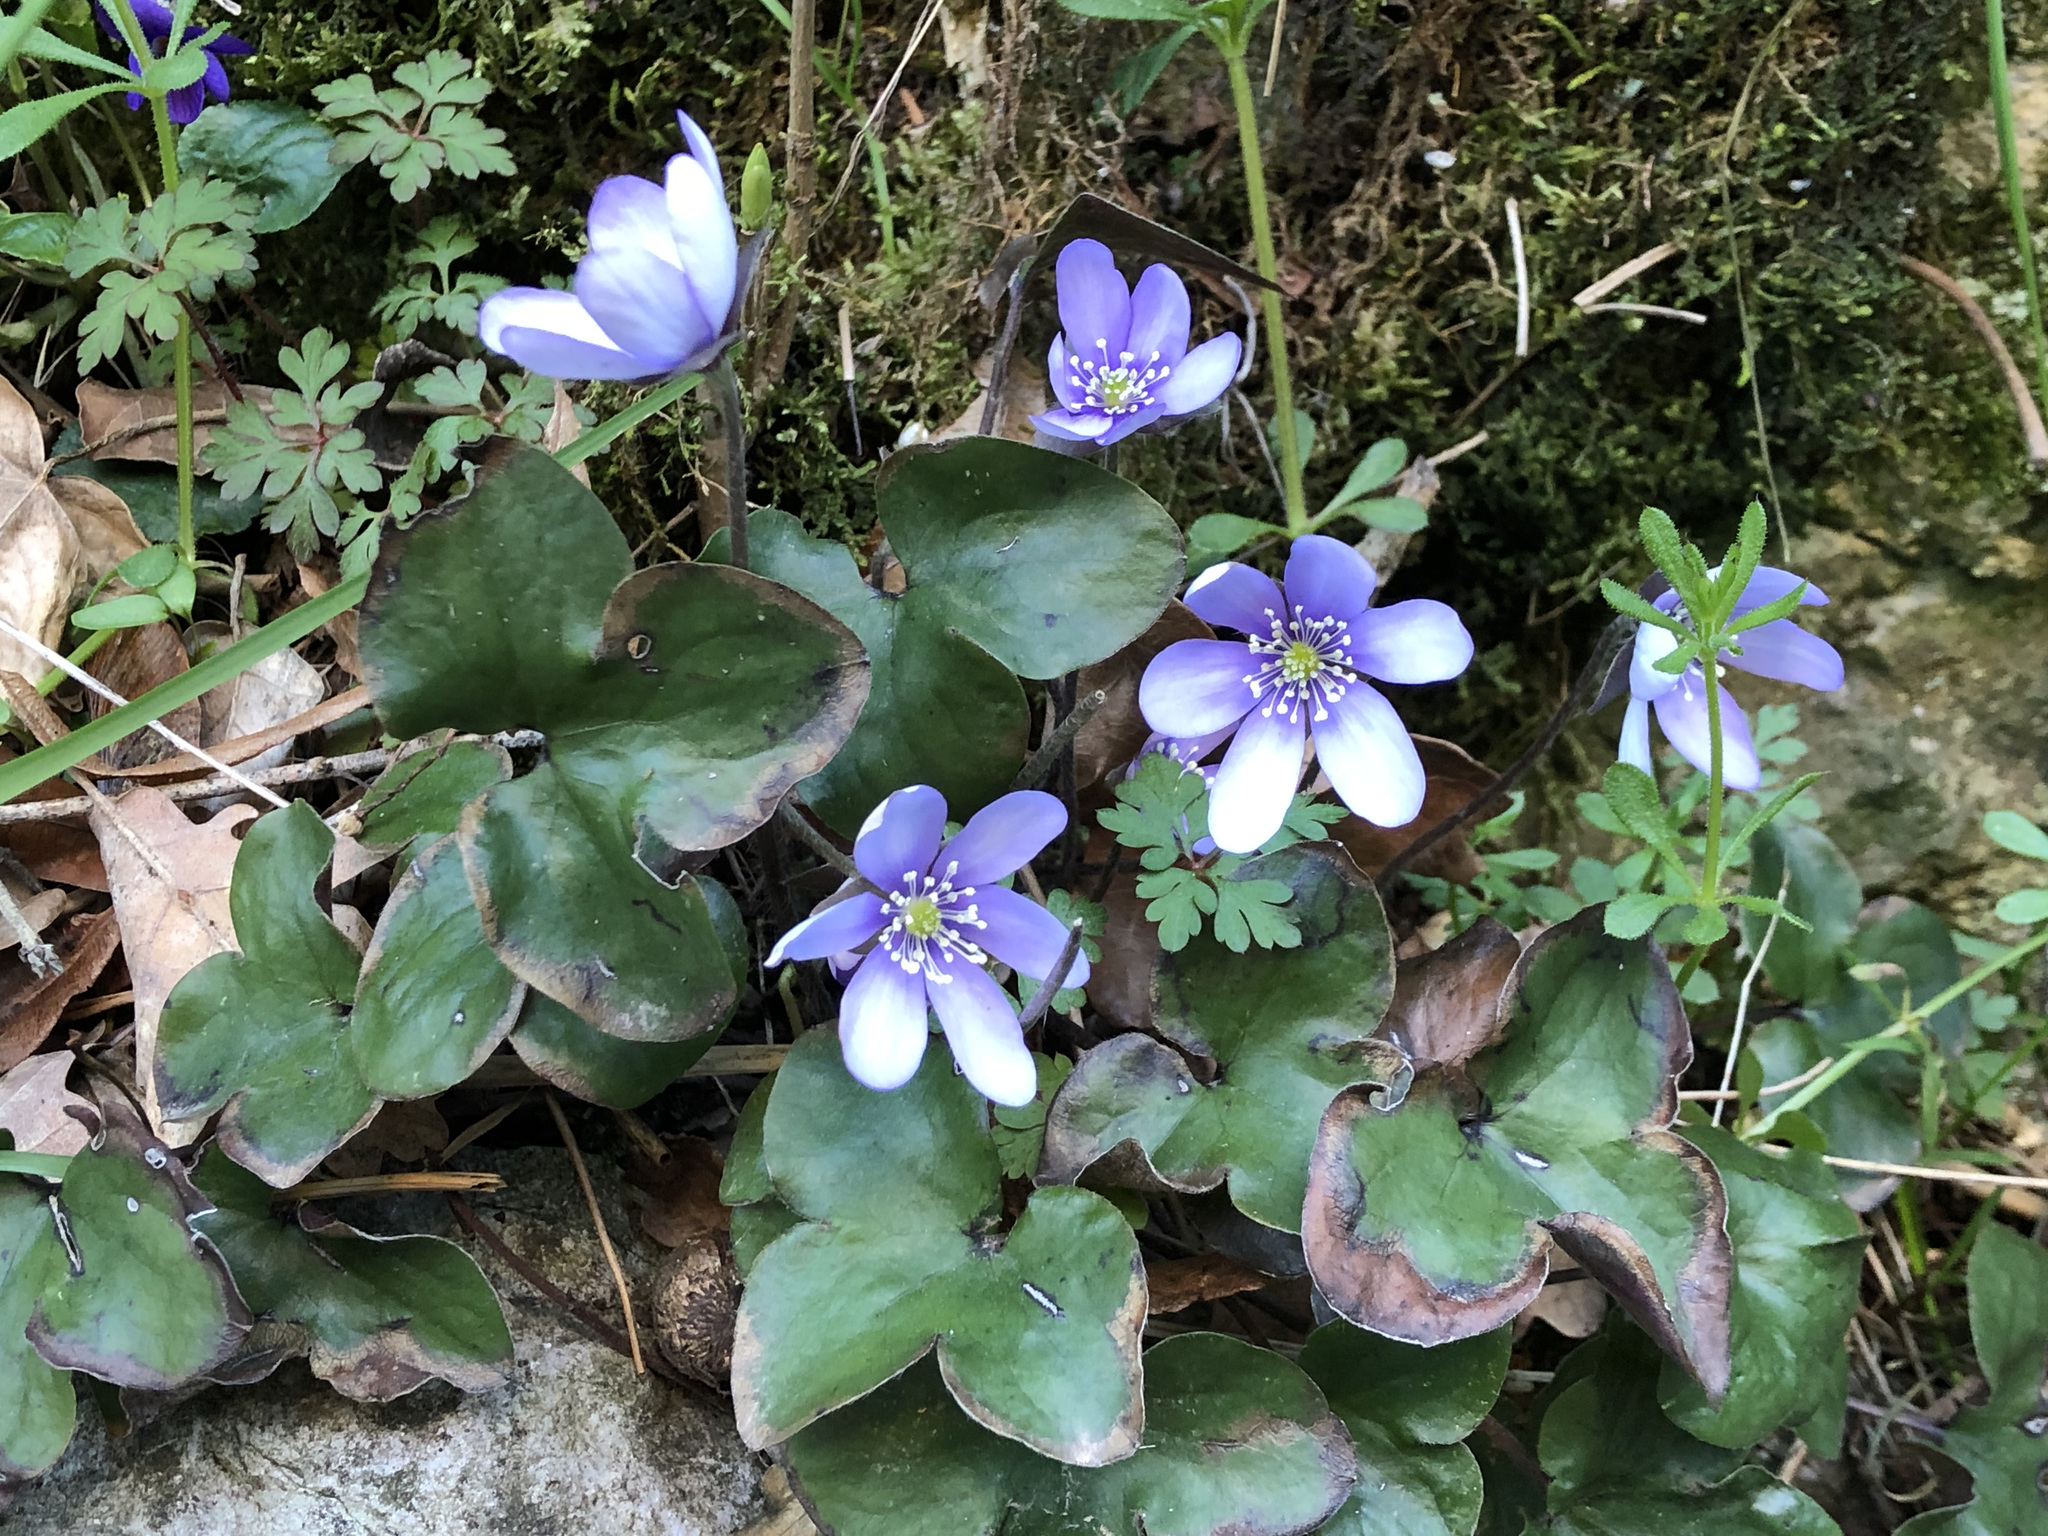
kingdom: Plantae
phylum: Tracheophyta
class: Magnoliopsida
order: Ranunculales
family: Ranunculaceae
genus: Hepatica
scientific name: Hepatica nobilis
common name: Liverleaf
